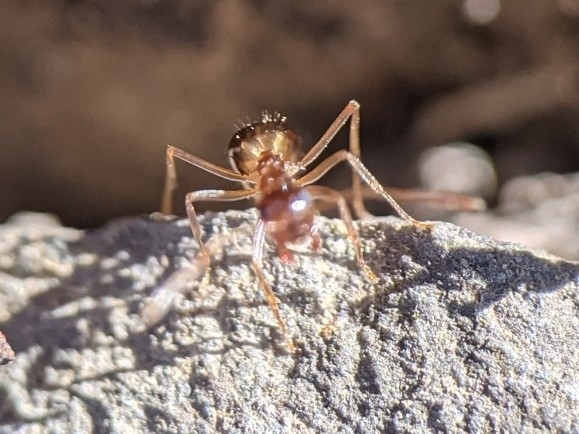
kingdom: Animalia
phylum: Arthropoda
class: Insecta
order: Hymenoptera
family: Formicidae
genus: Prenolepis
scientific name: Prenolepis imparis
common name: Small honey ant
